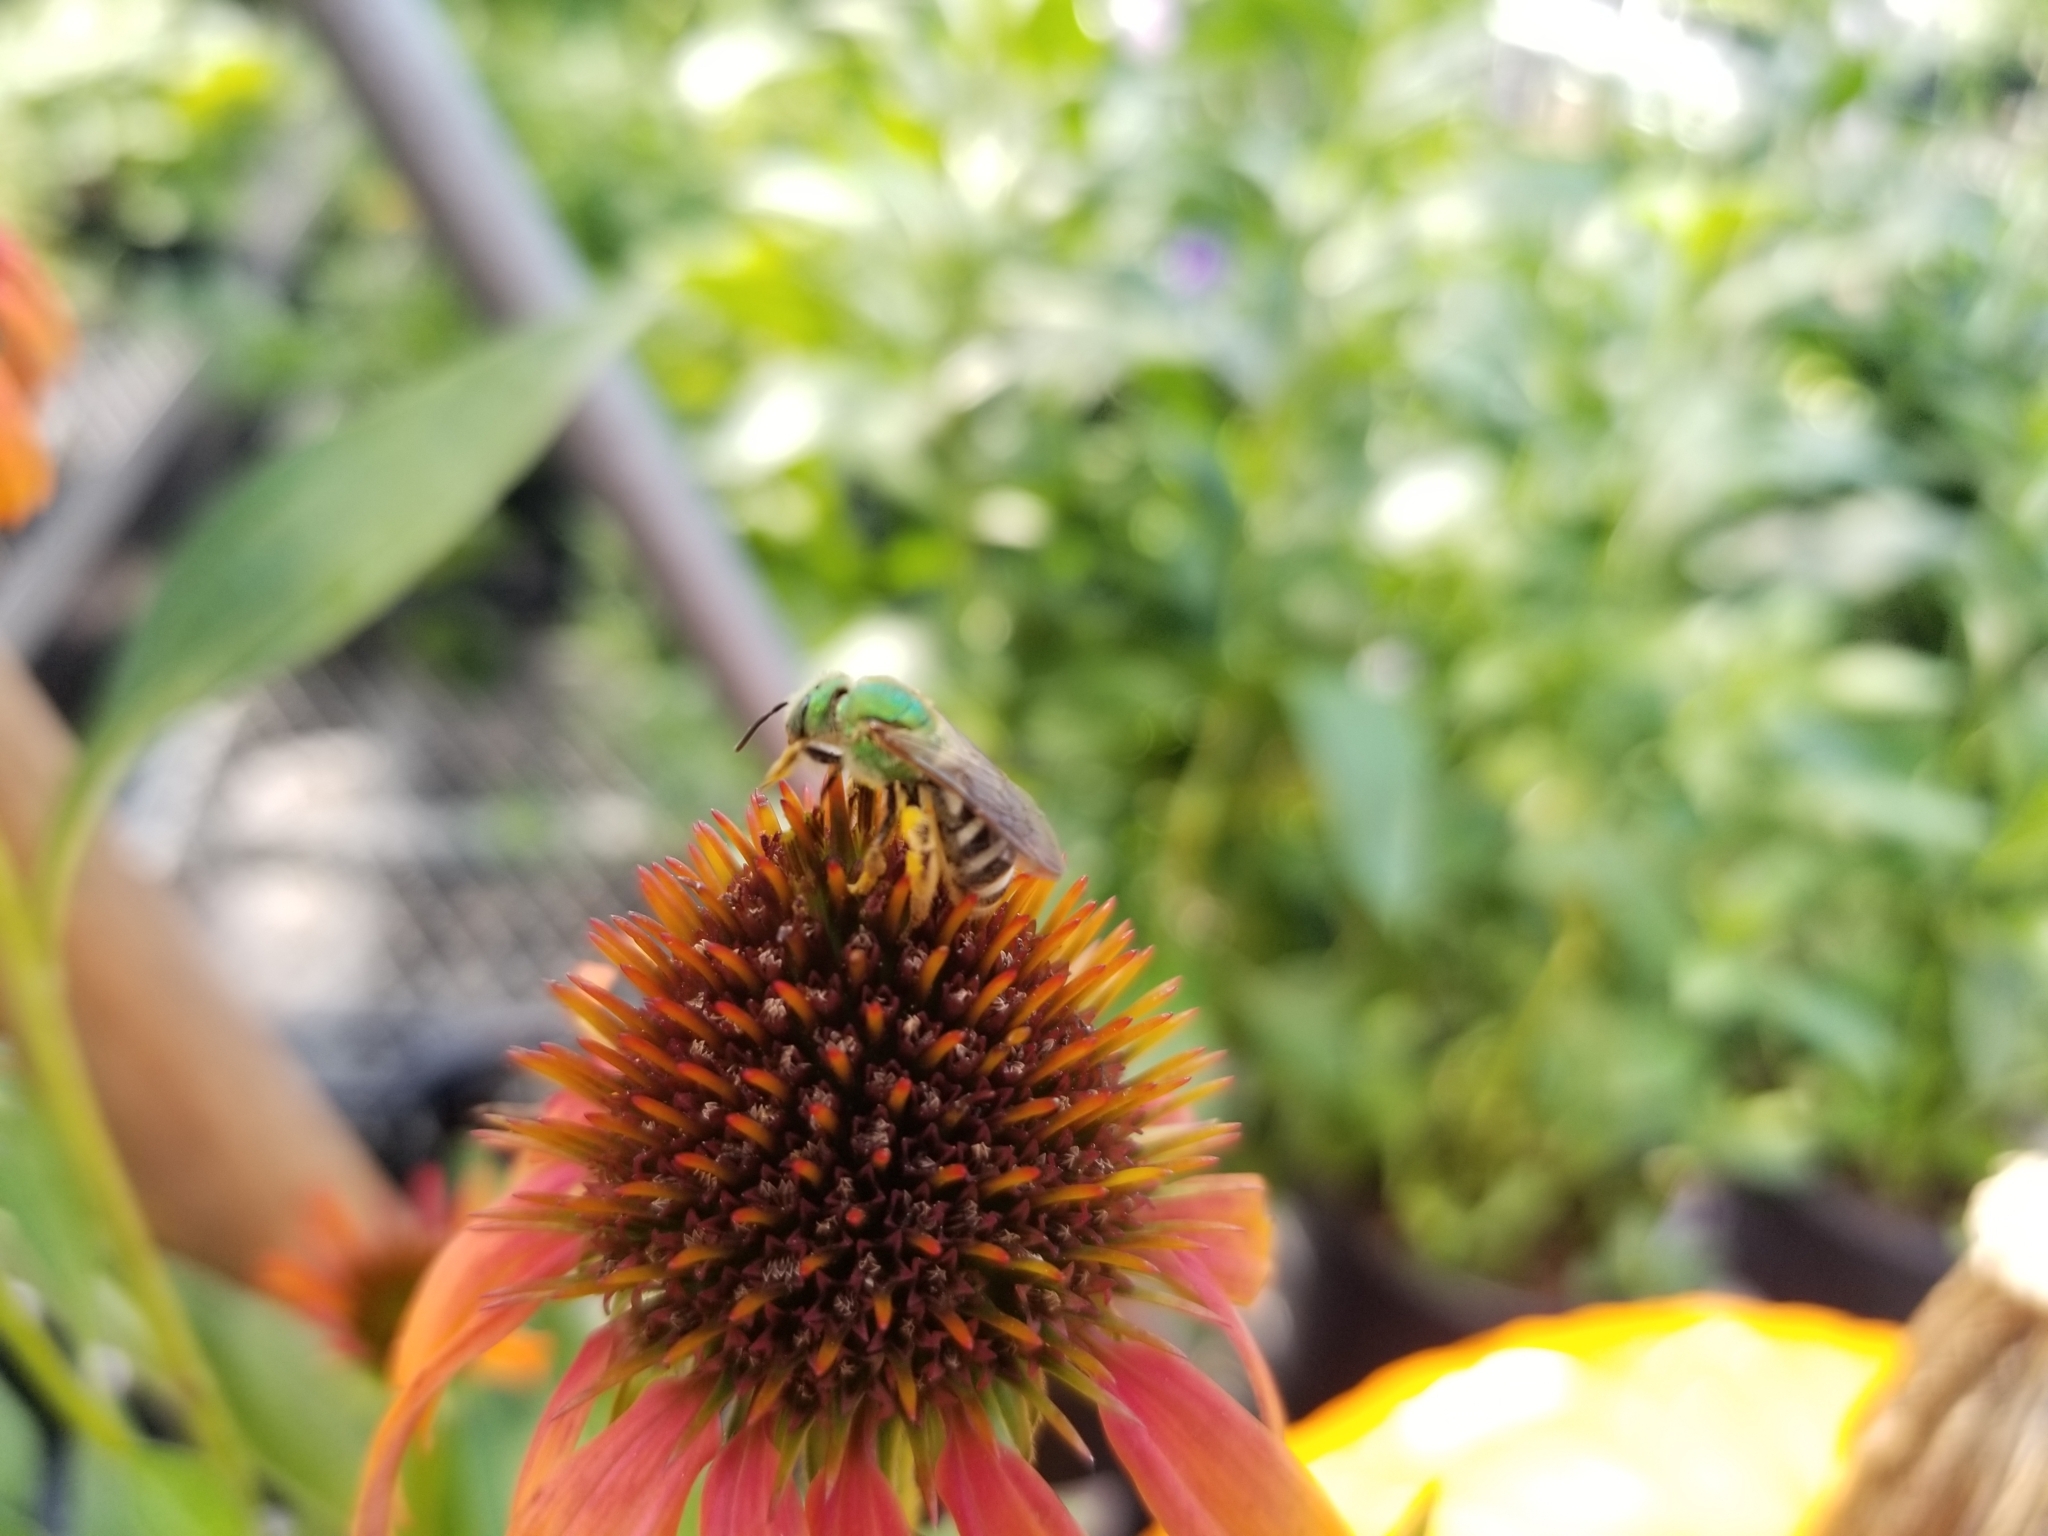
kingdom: Animalia
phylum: Arthropoda
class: Insecta
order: Hymenoptera
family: Halictidae
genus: Agapostemon
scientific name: Agapostemon virescens
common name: Bicolored striped sweat bee
